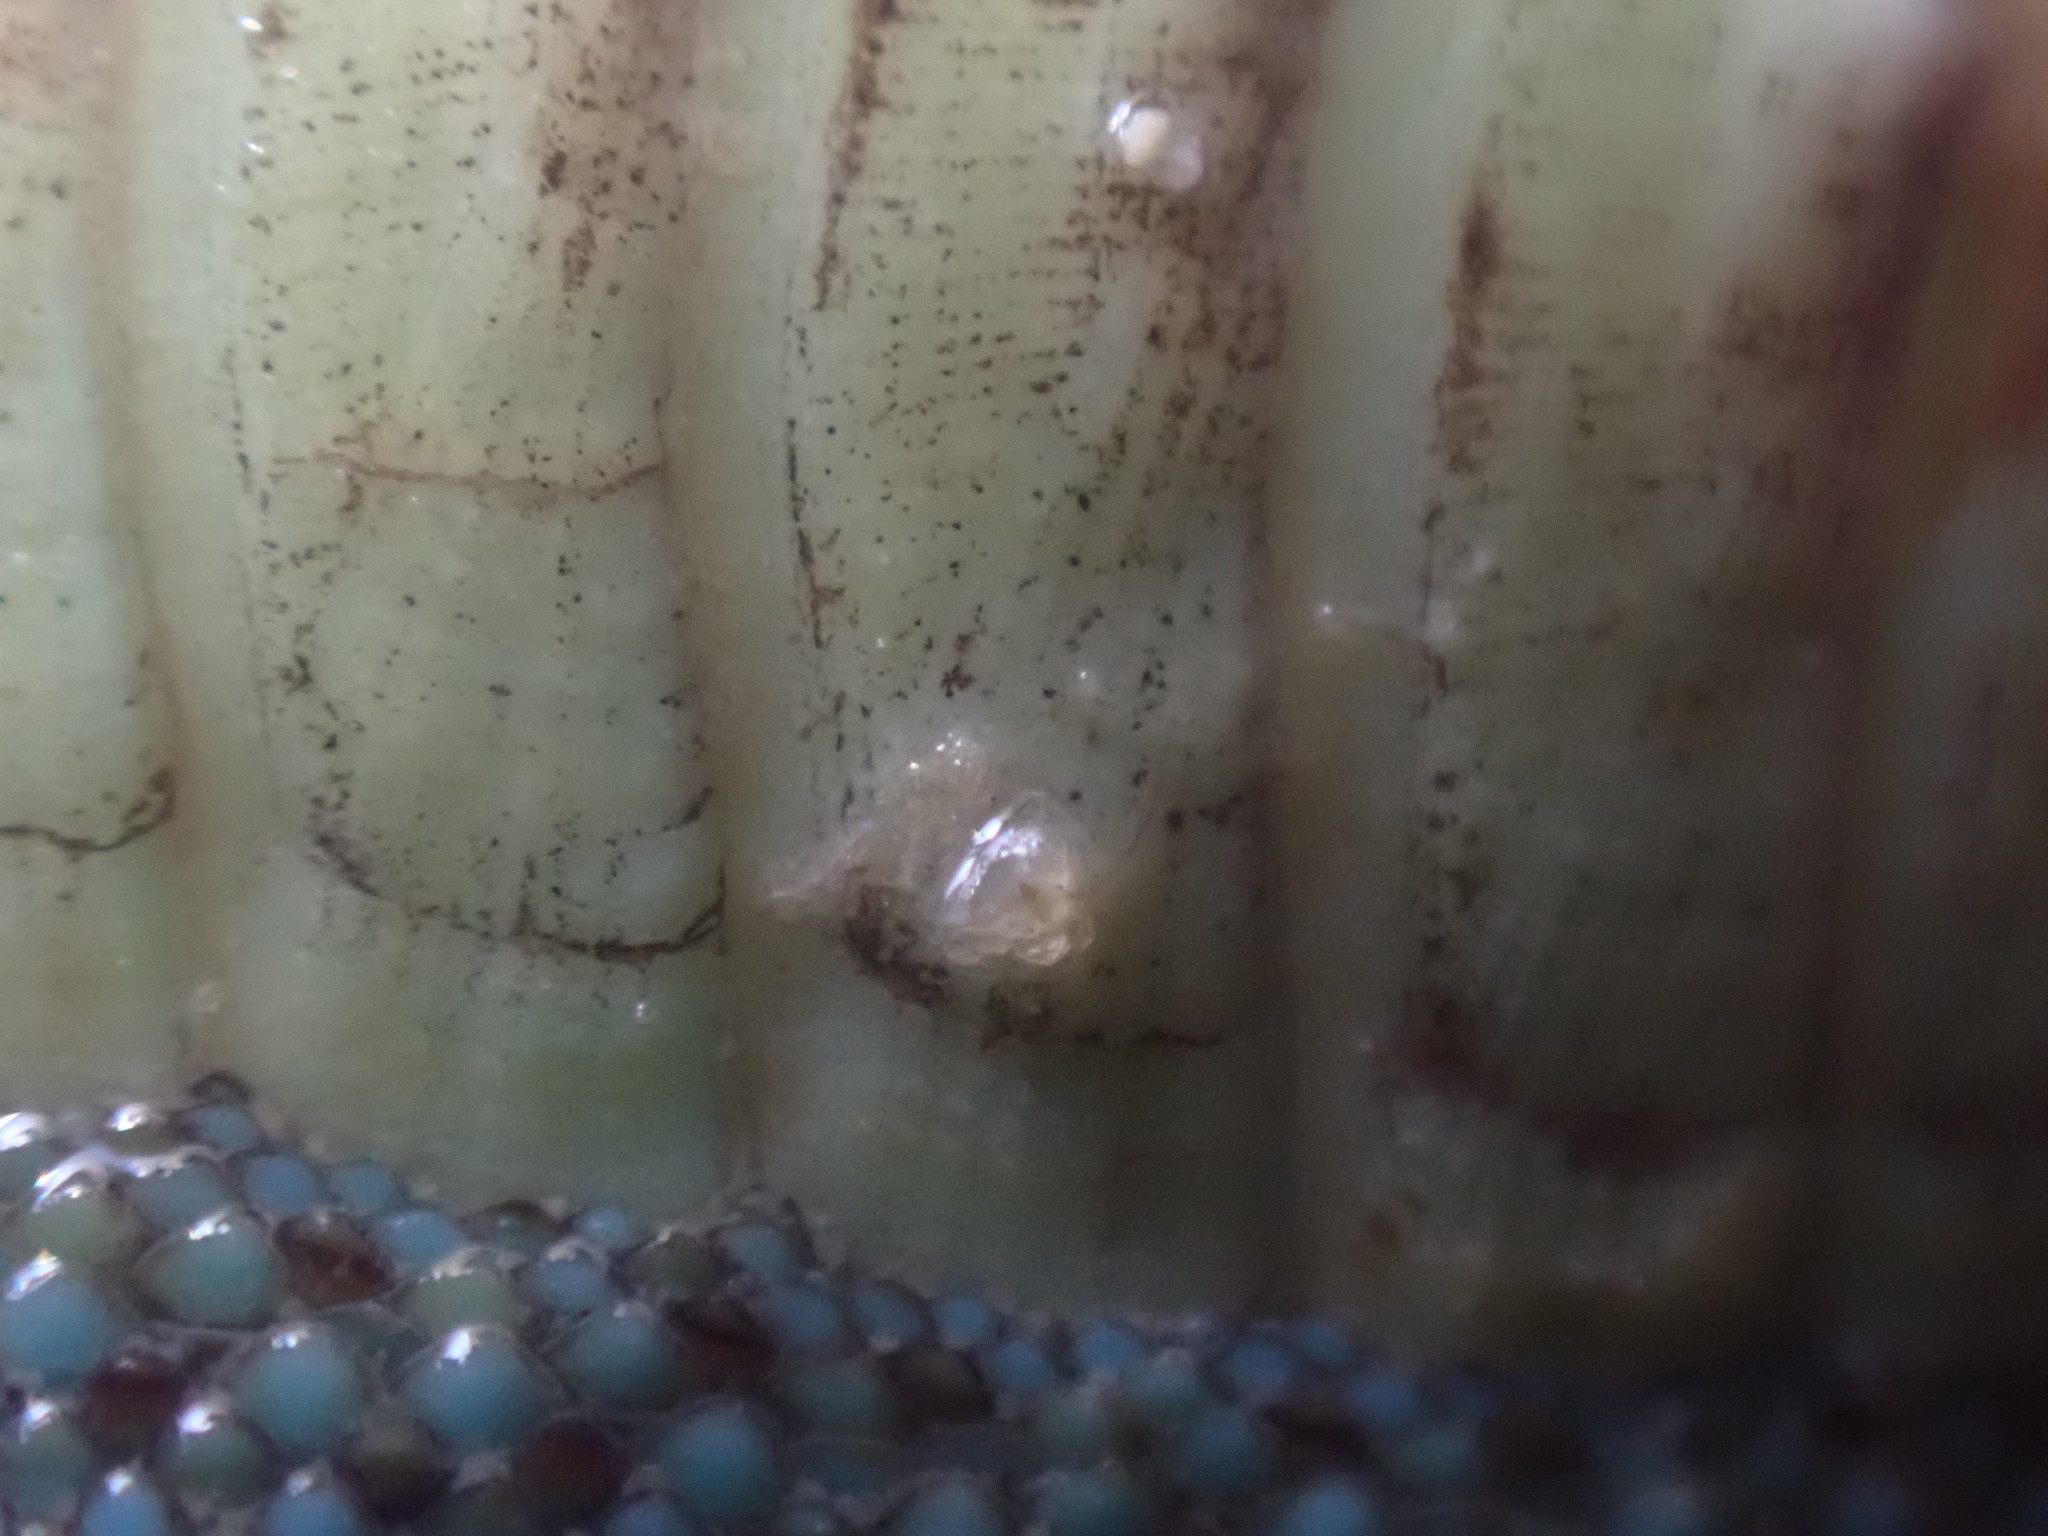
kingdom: Animalia
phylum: Mollusca
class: Polyplacophora
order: Chitonida
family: Chitonidae
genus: Chiton
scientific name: Chiton glaucus
